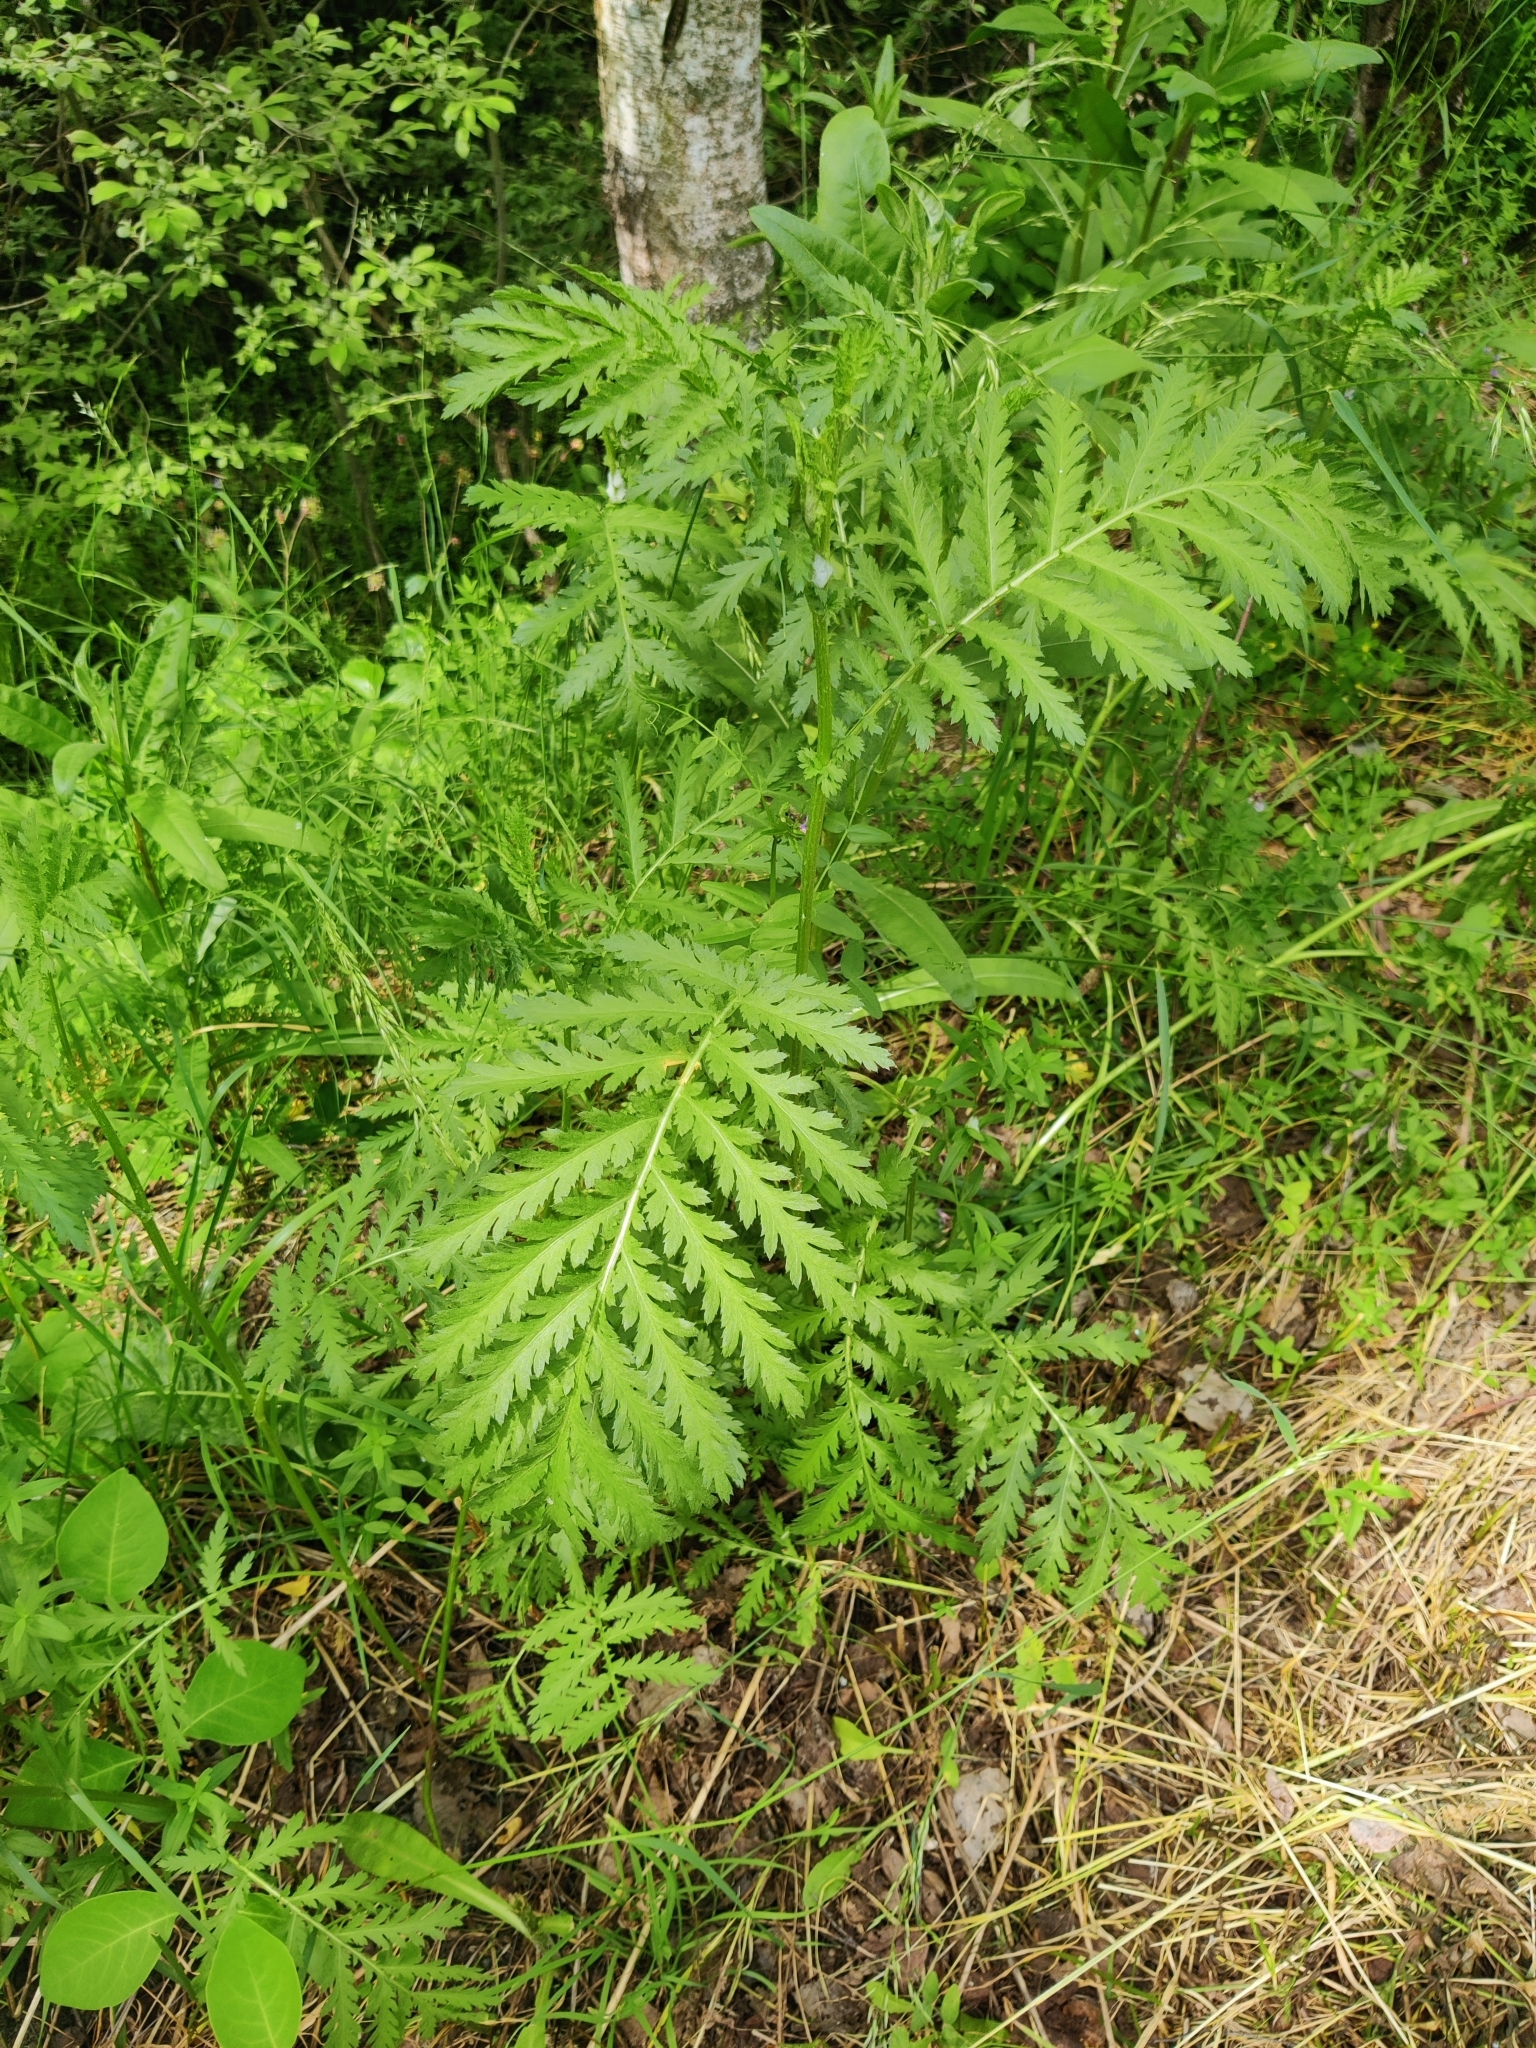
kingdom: Plantae
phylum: Tracheophyta
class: Magnoliopsida
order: Asterales
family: Asteraceae
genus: Tanacetum
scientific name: Tanacetum vulgare
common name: Common tansy
